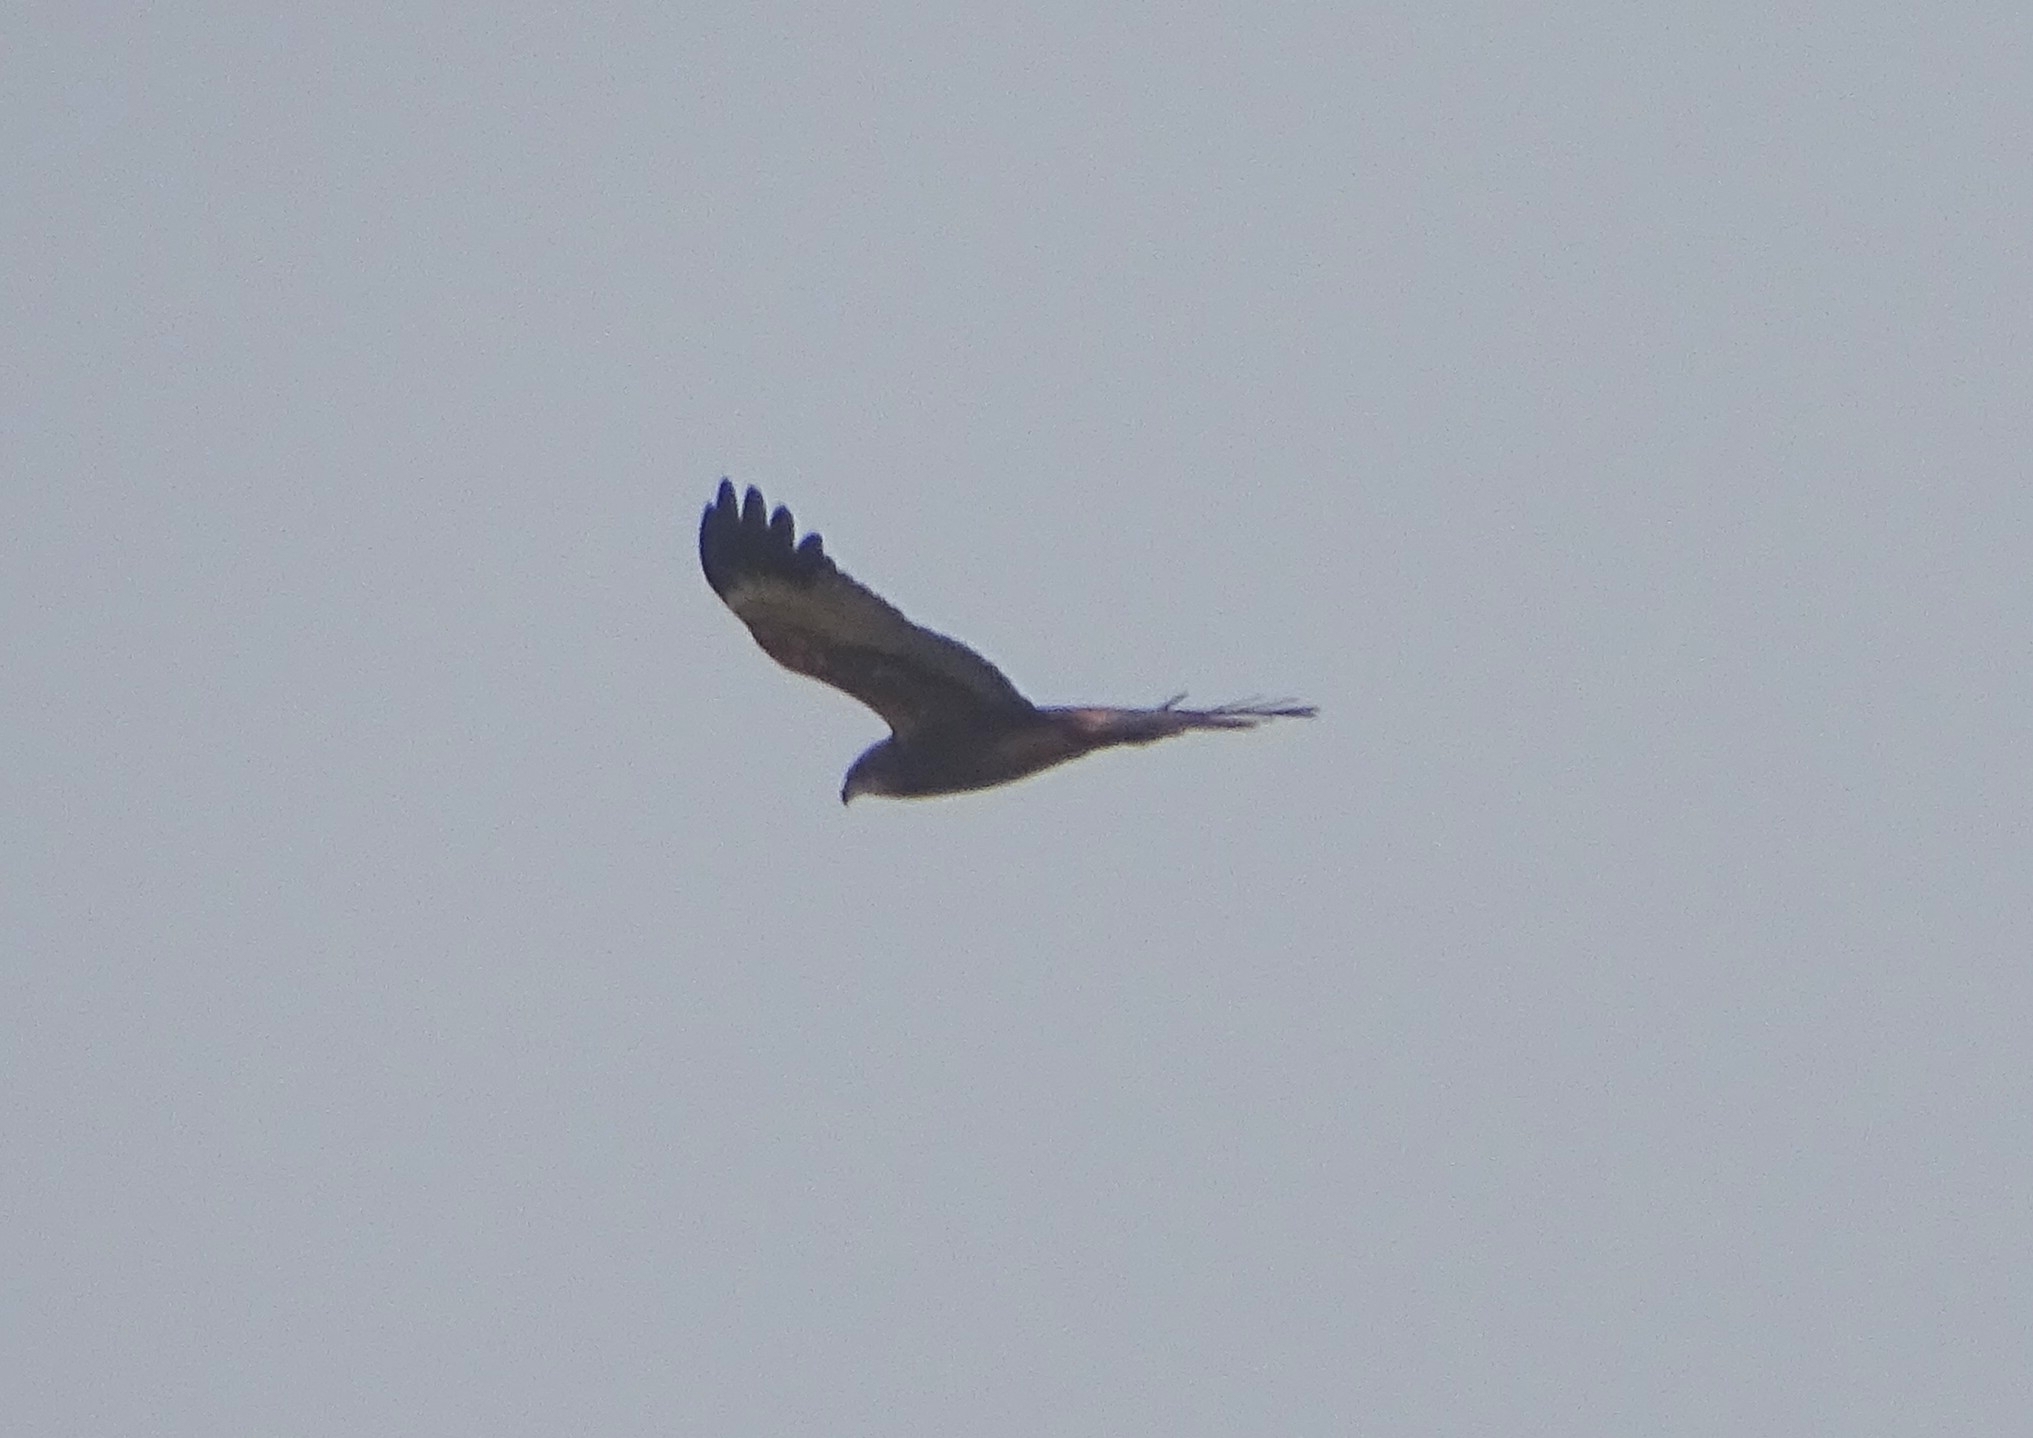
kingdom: Animalia
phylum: Chordata
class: Aves
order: Accipitriformes
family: Accipitridae
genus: Circus
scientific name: Circus aeruginosus
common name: Western marsh harrier
